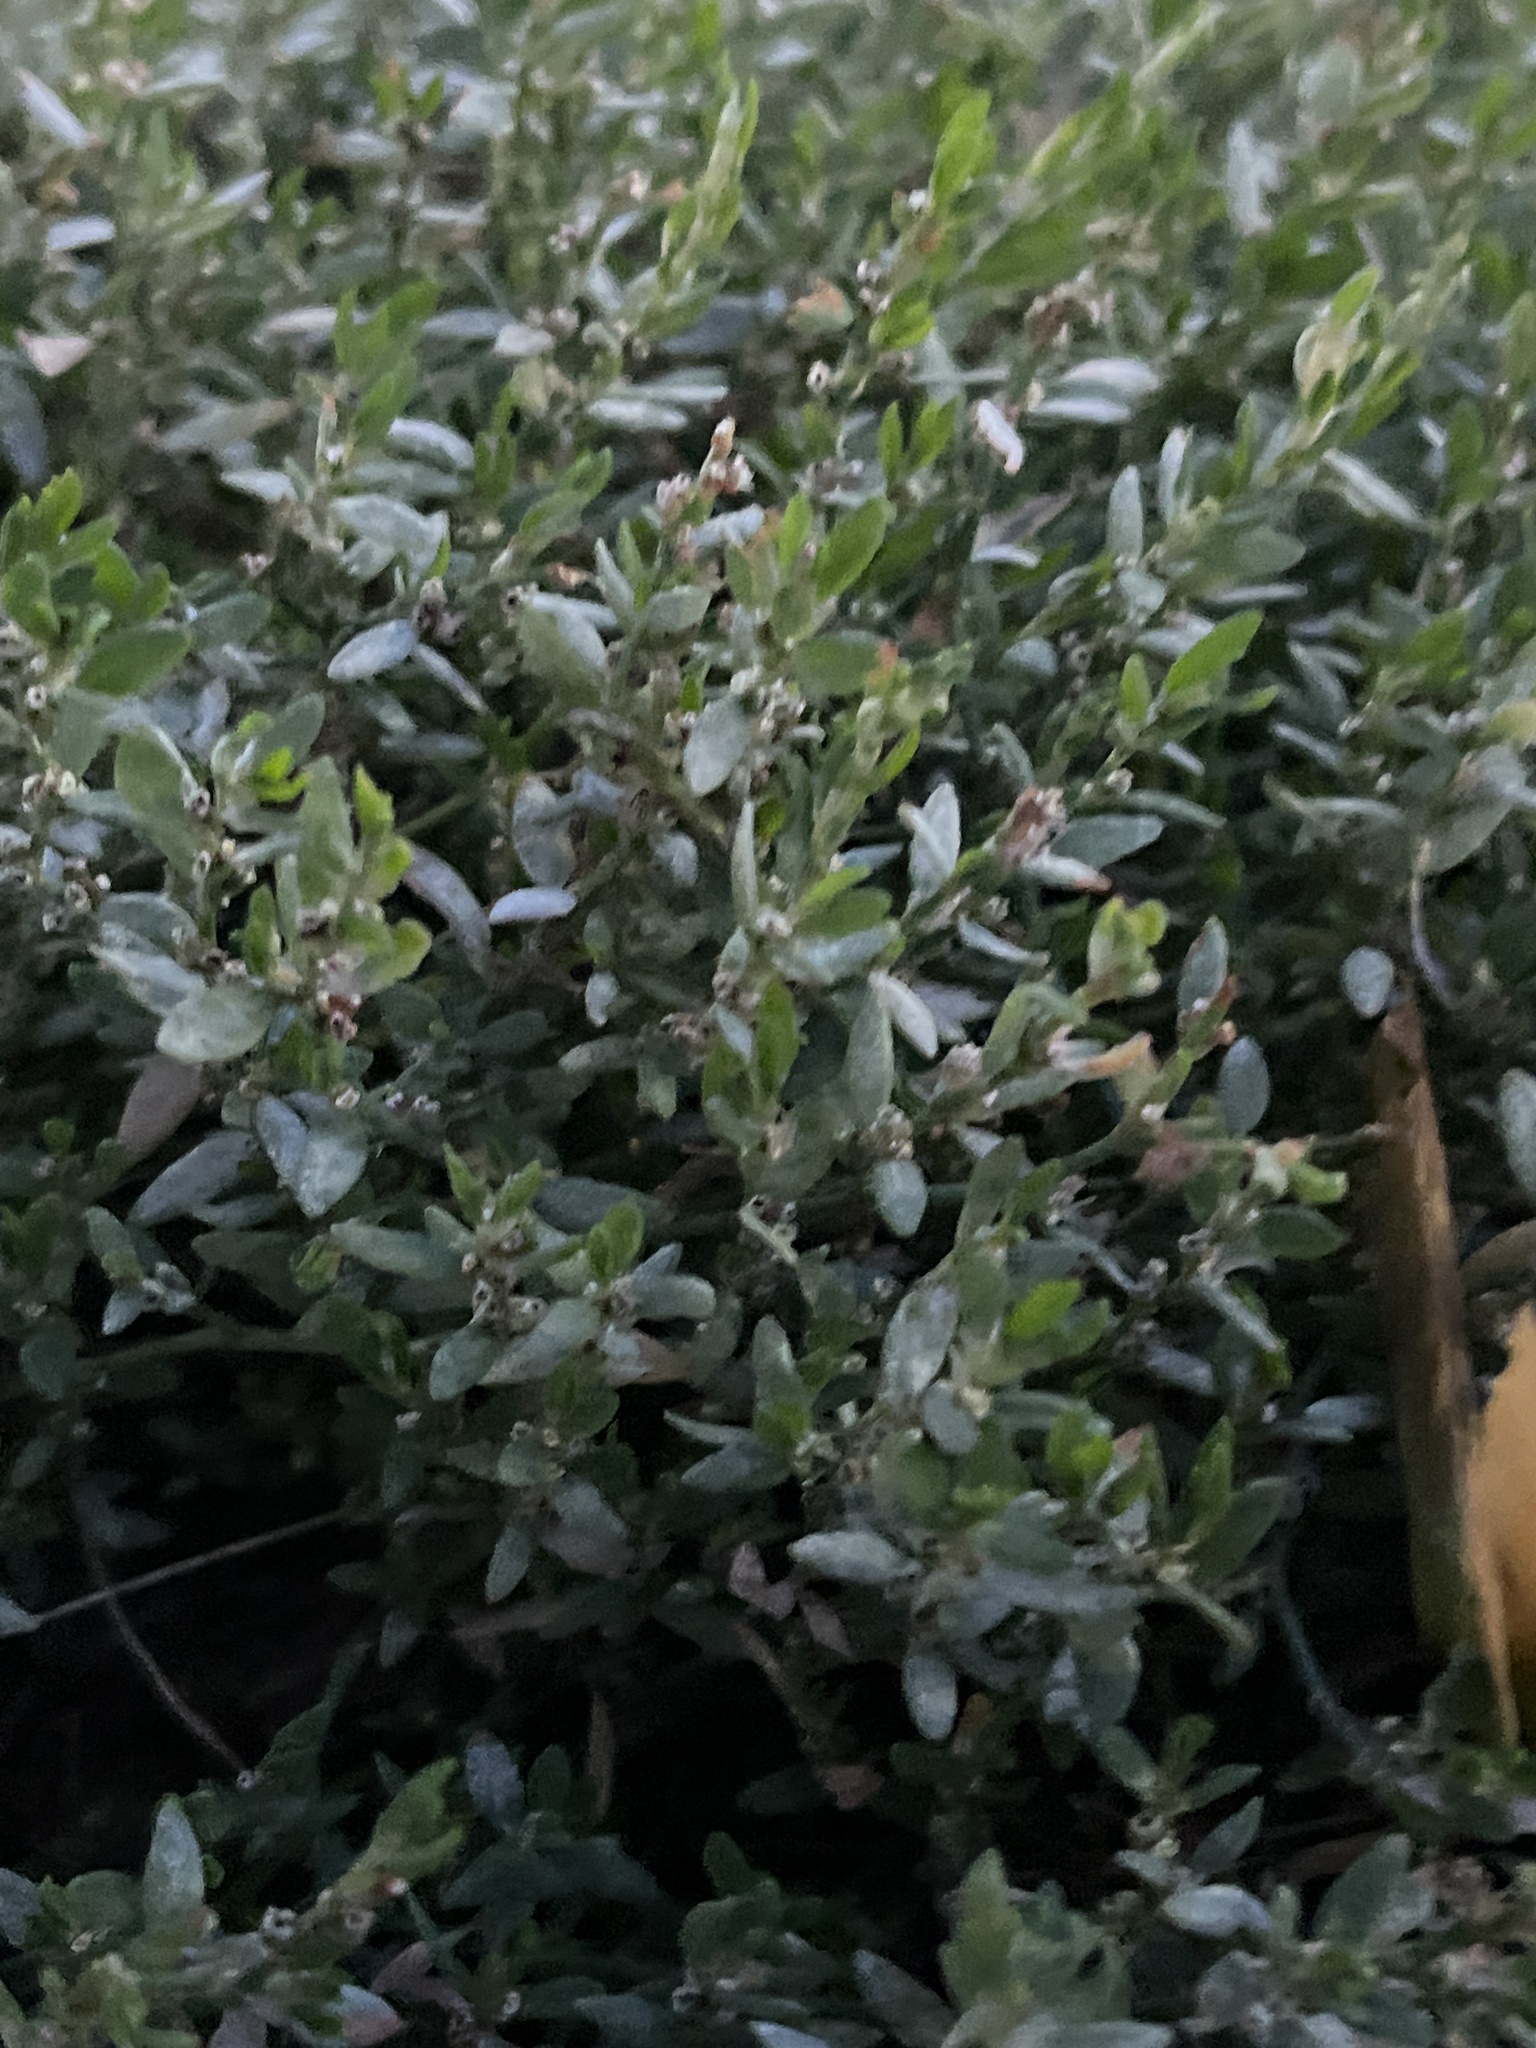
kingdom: Plantae
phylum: Tracheophyta
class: Magnoliopsida
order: Caryophyllales
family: Polygonaceae
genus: Polygonum
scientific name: Polygonum aviculare
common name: Prostrate knotweed
